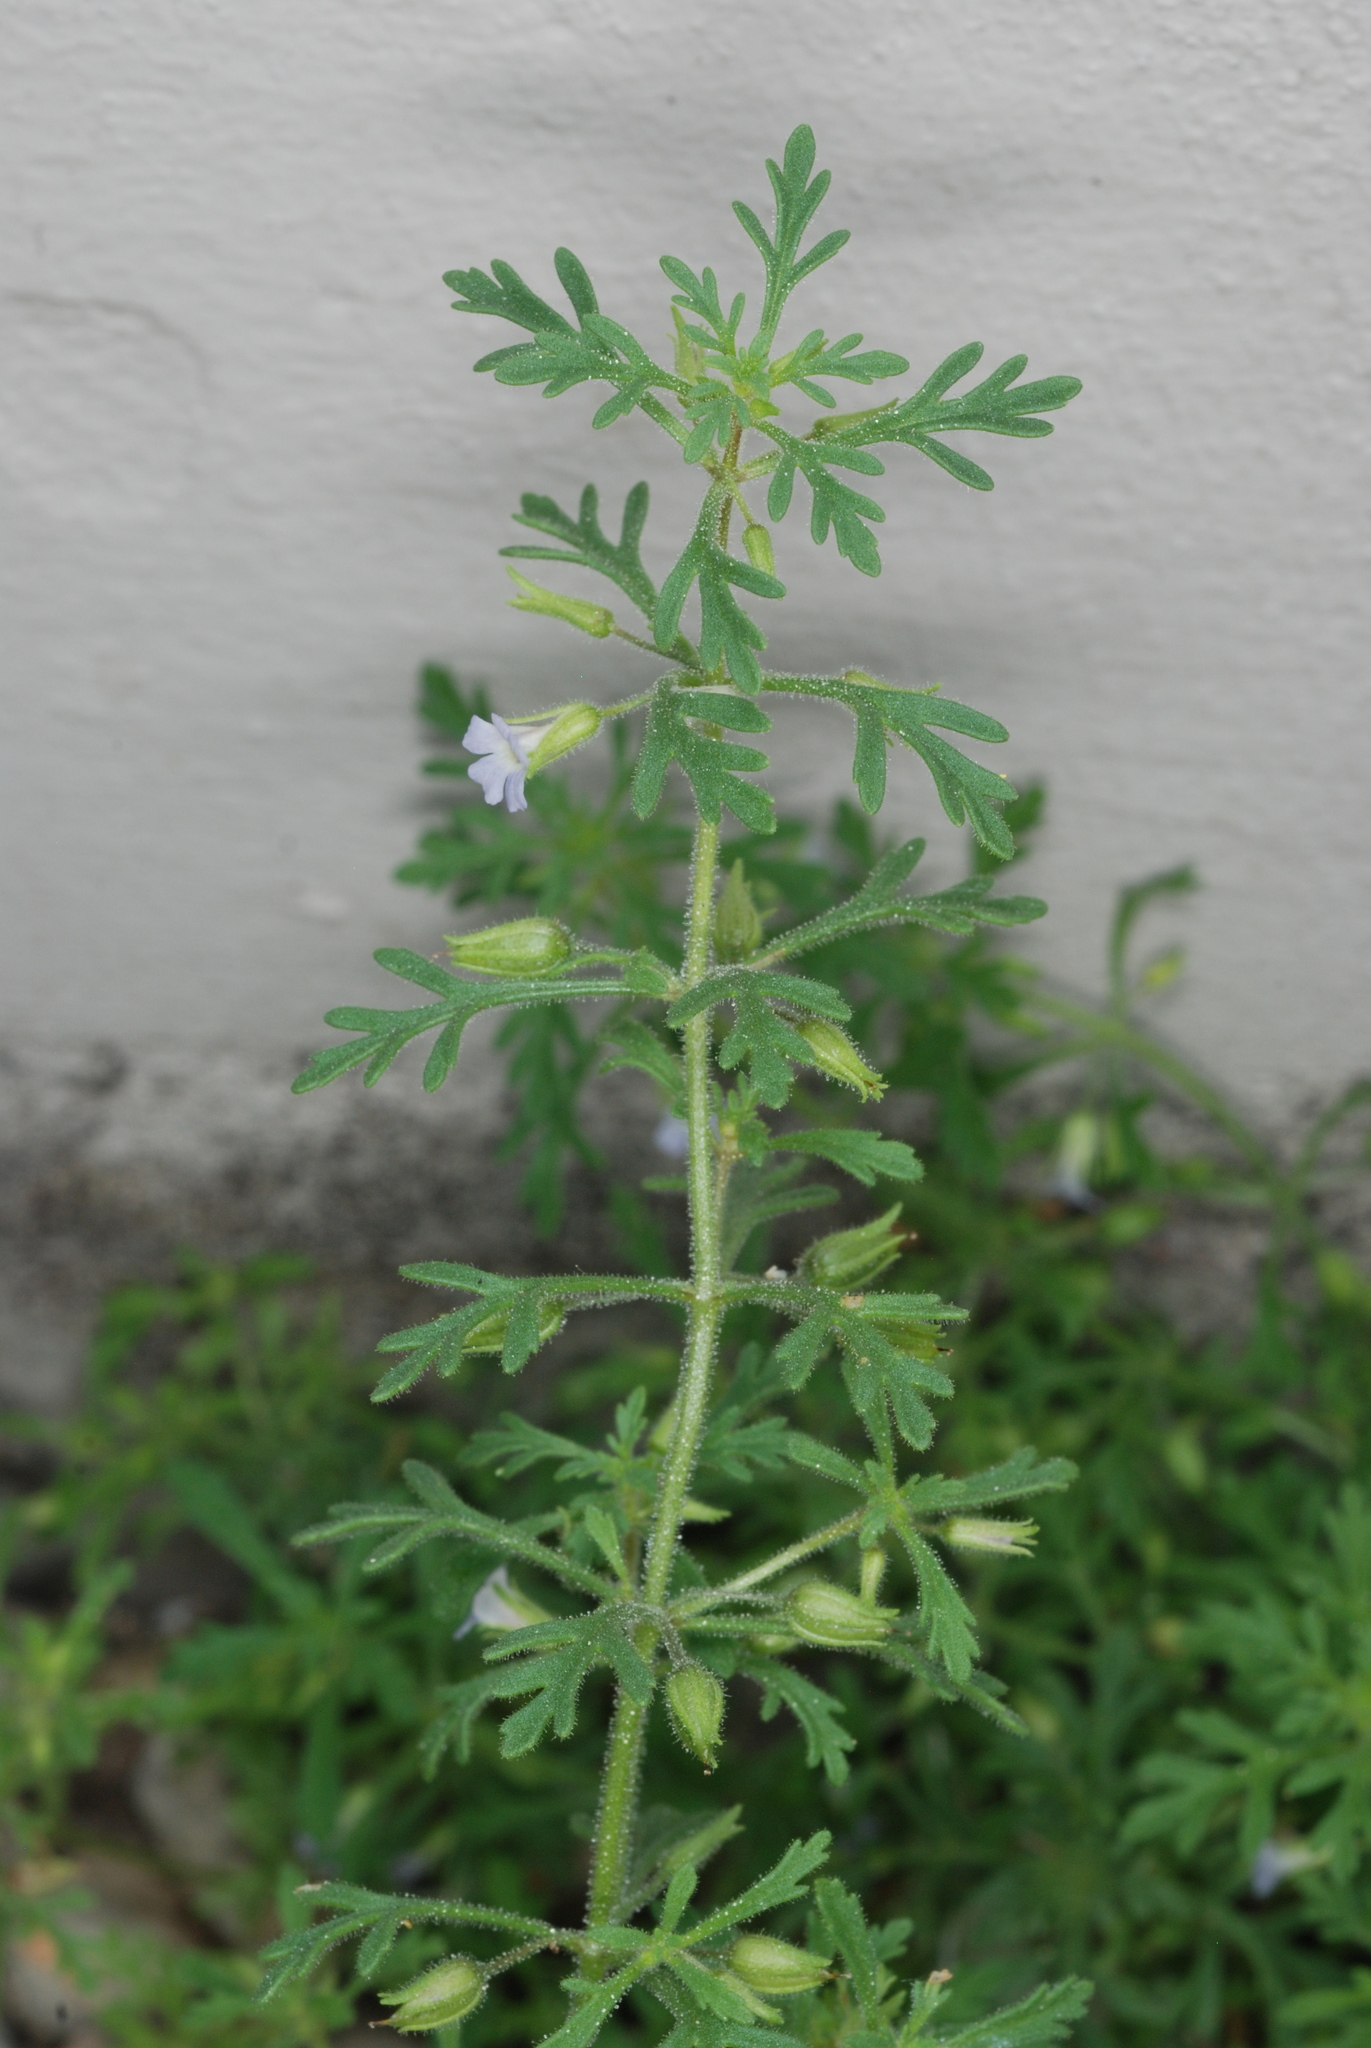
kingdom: Plantae
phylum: Tracheophyta
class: Magnoliopsida
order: Lamiales
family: Plantaginaceae
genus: Leucospora
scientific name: Leucospora multifida
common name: Narrow-leaf paleseed
